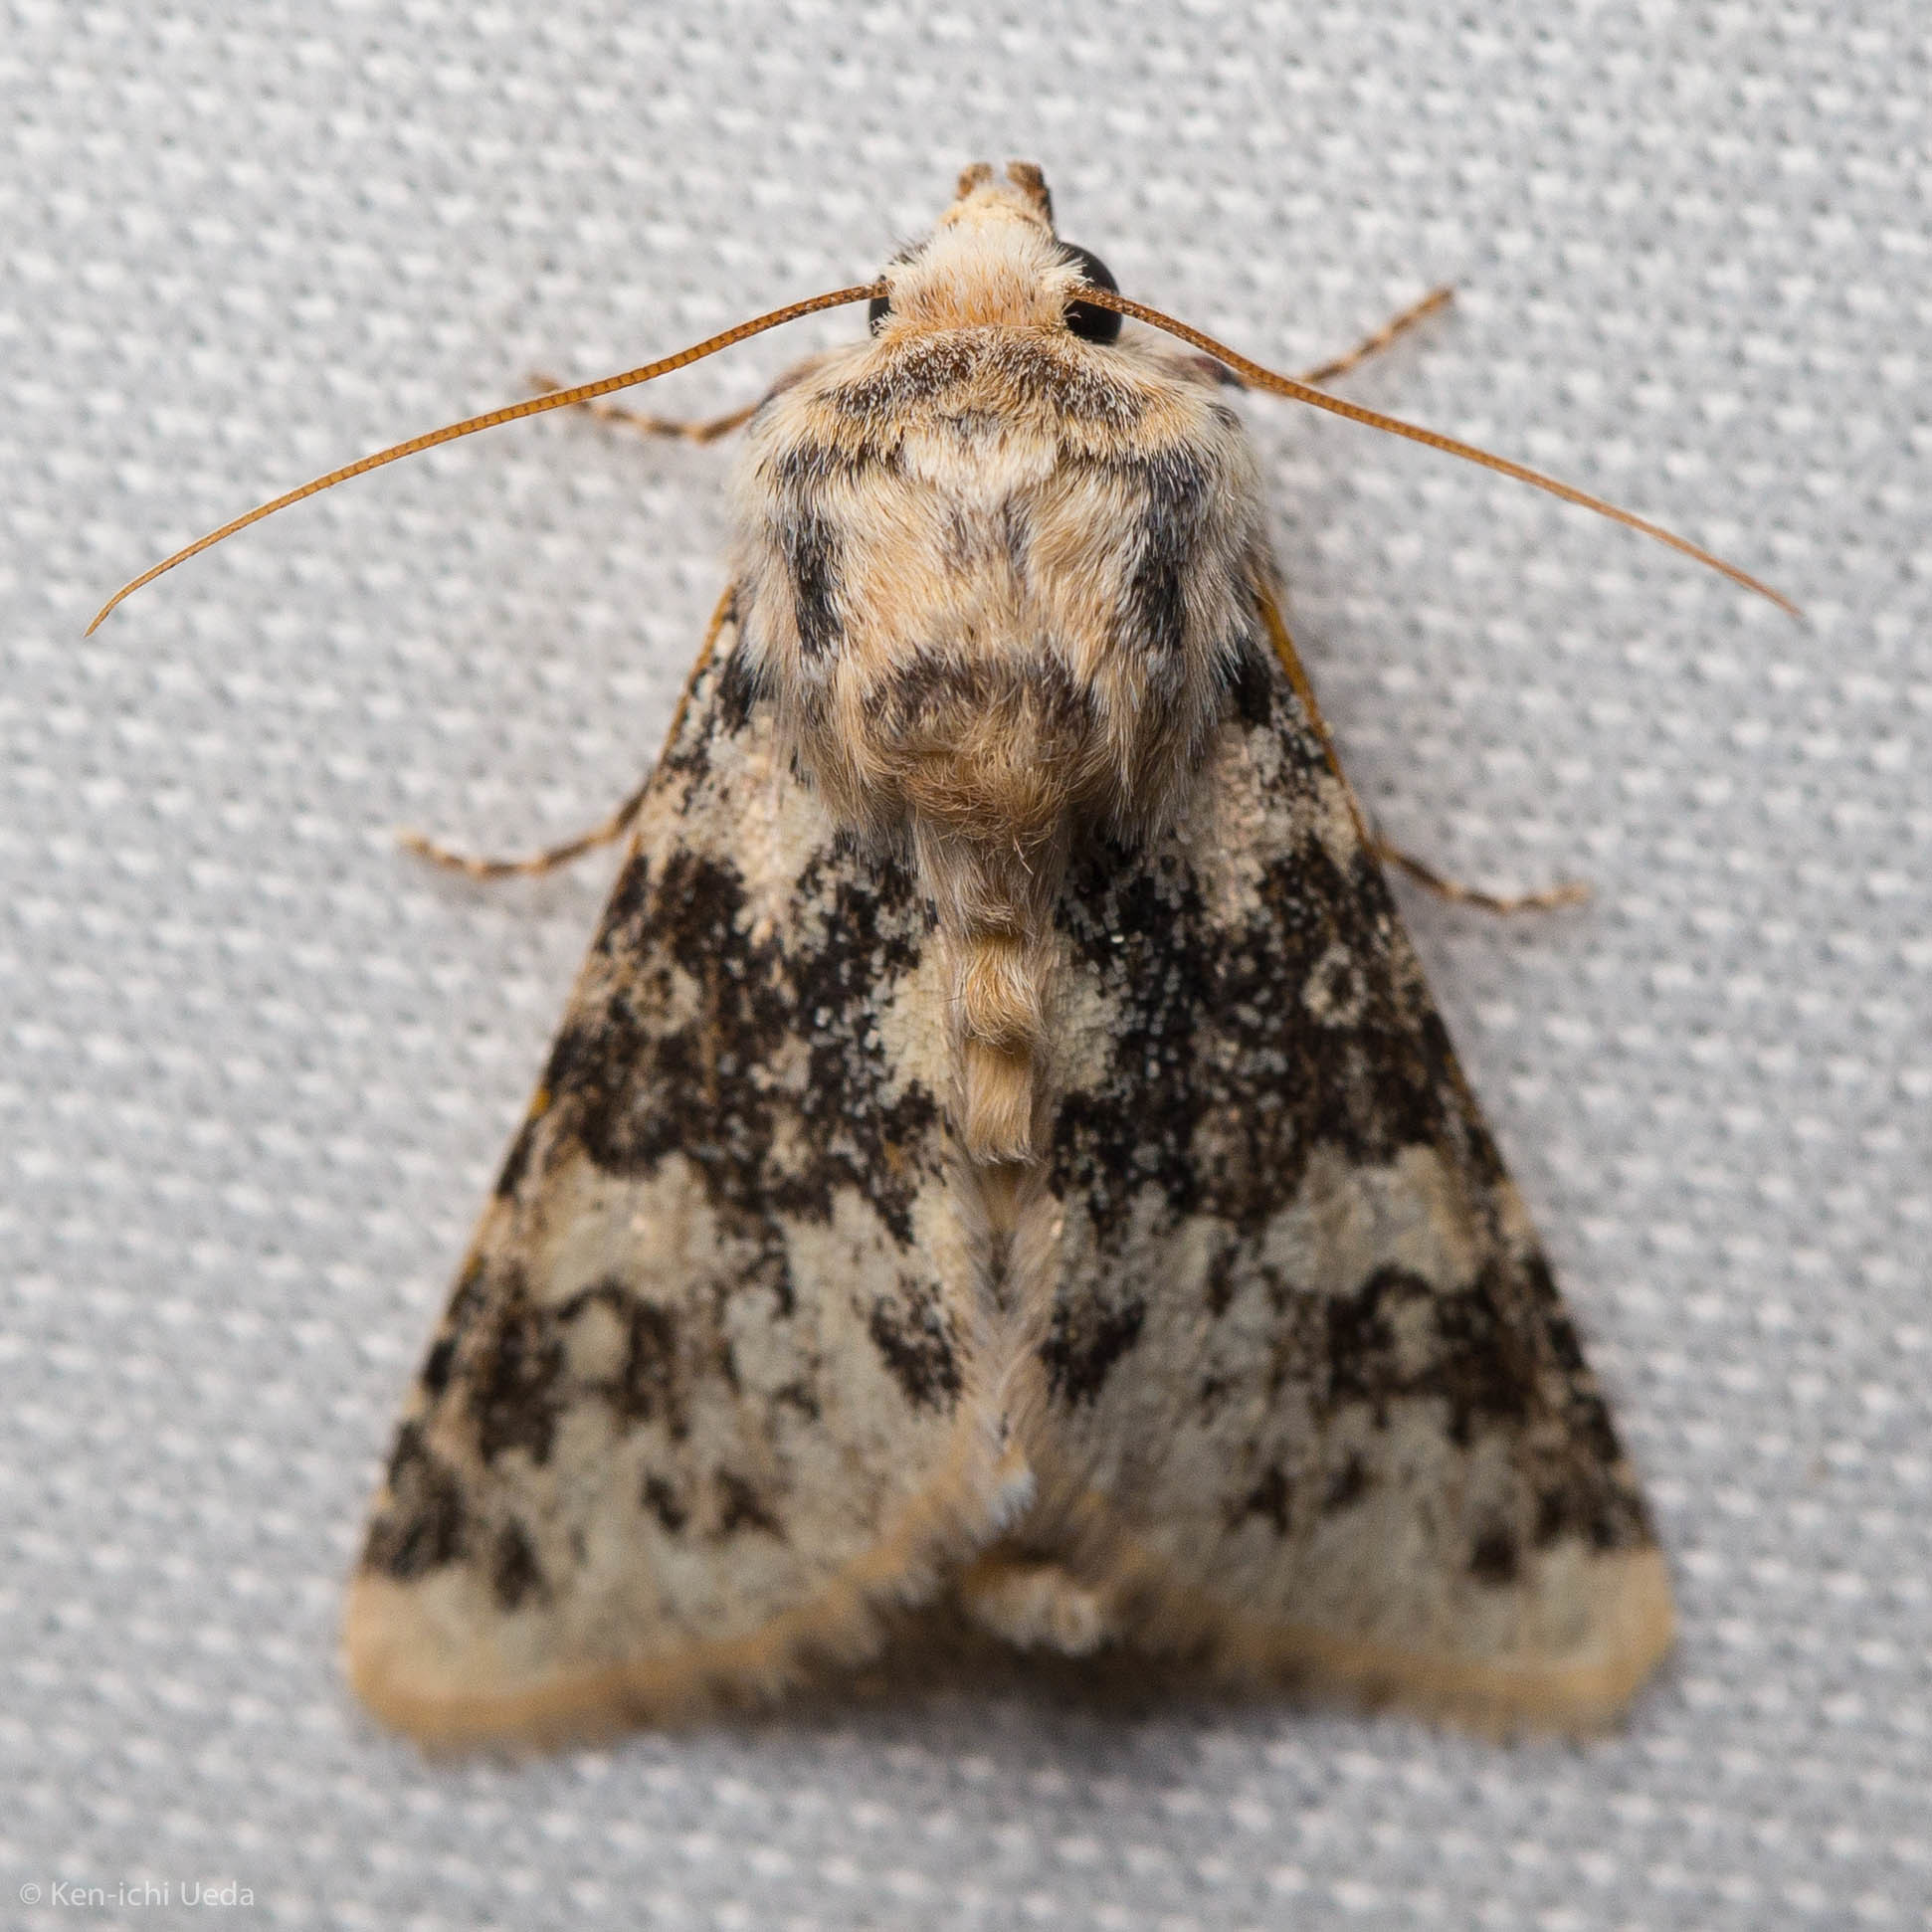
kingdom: Animalia
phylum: Arthropoda
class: Insecta
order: Lepidoptera
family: Noctuidae
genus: Unciella
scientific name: Unciella primula
